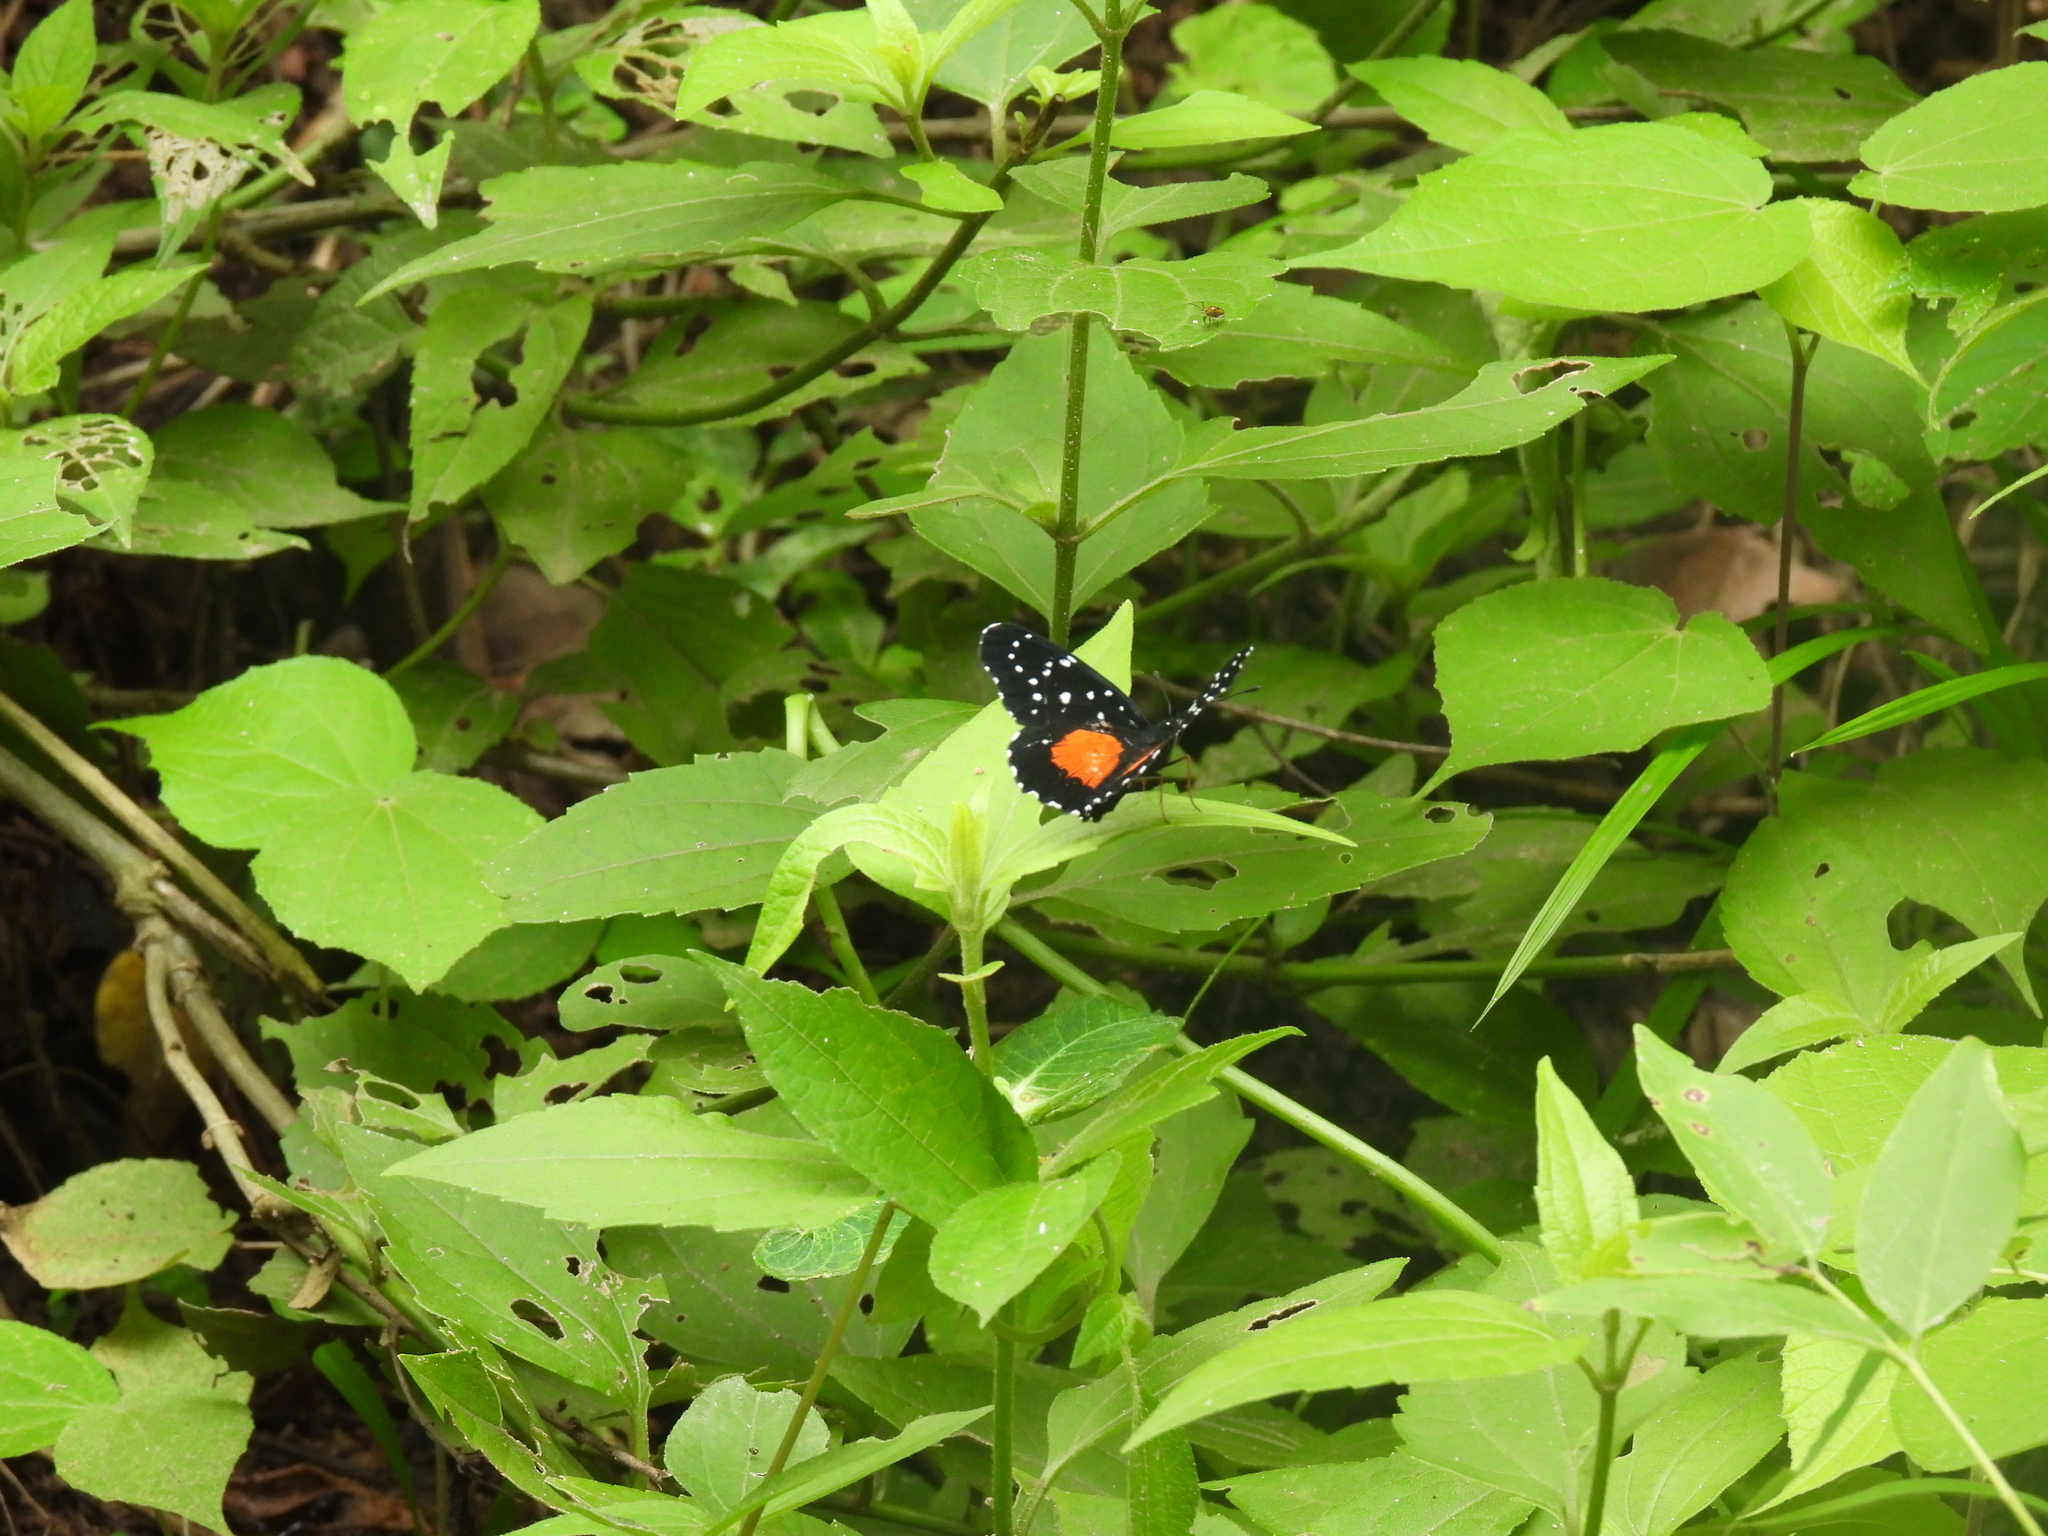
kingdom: Animalia
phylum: Arthropoda
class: Insecta
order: Lepidoptera
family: Nymphalidae
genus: Chlosyne
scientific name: Chlosyne janais
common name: Crimson patch
